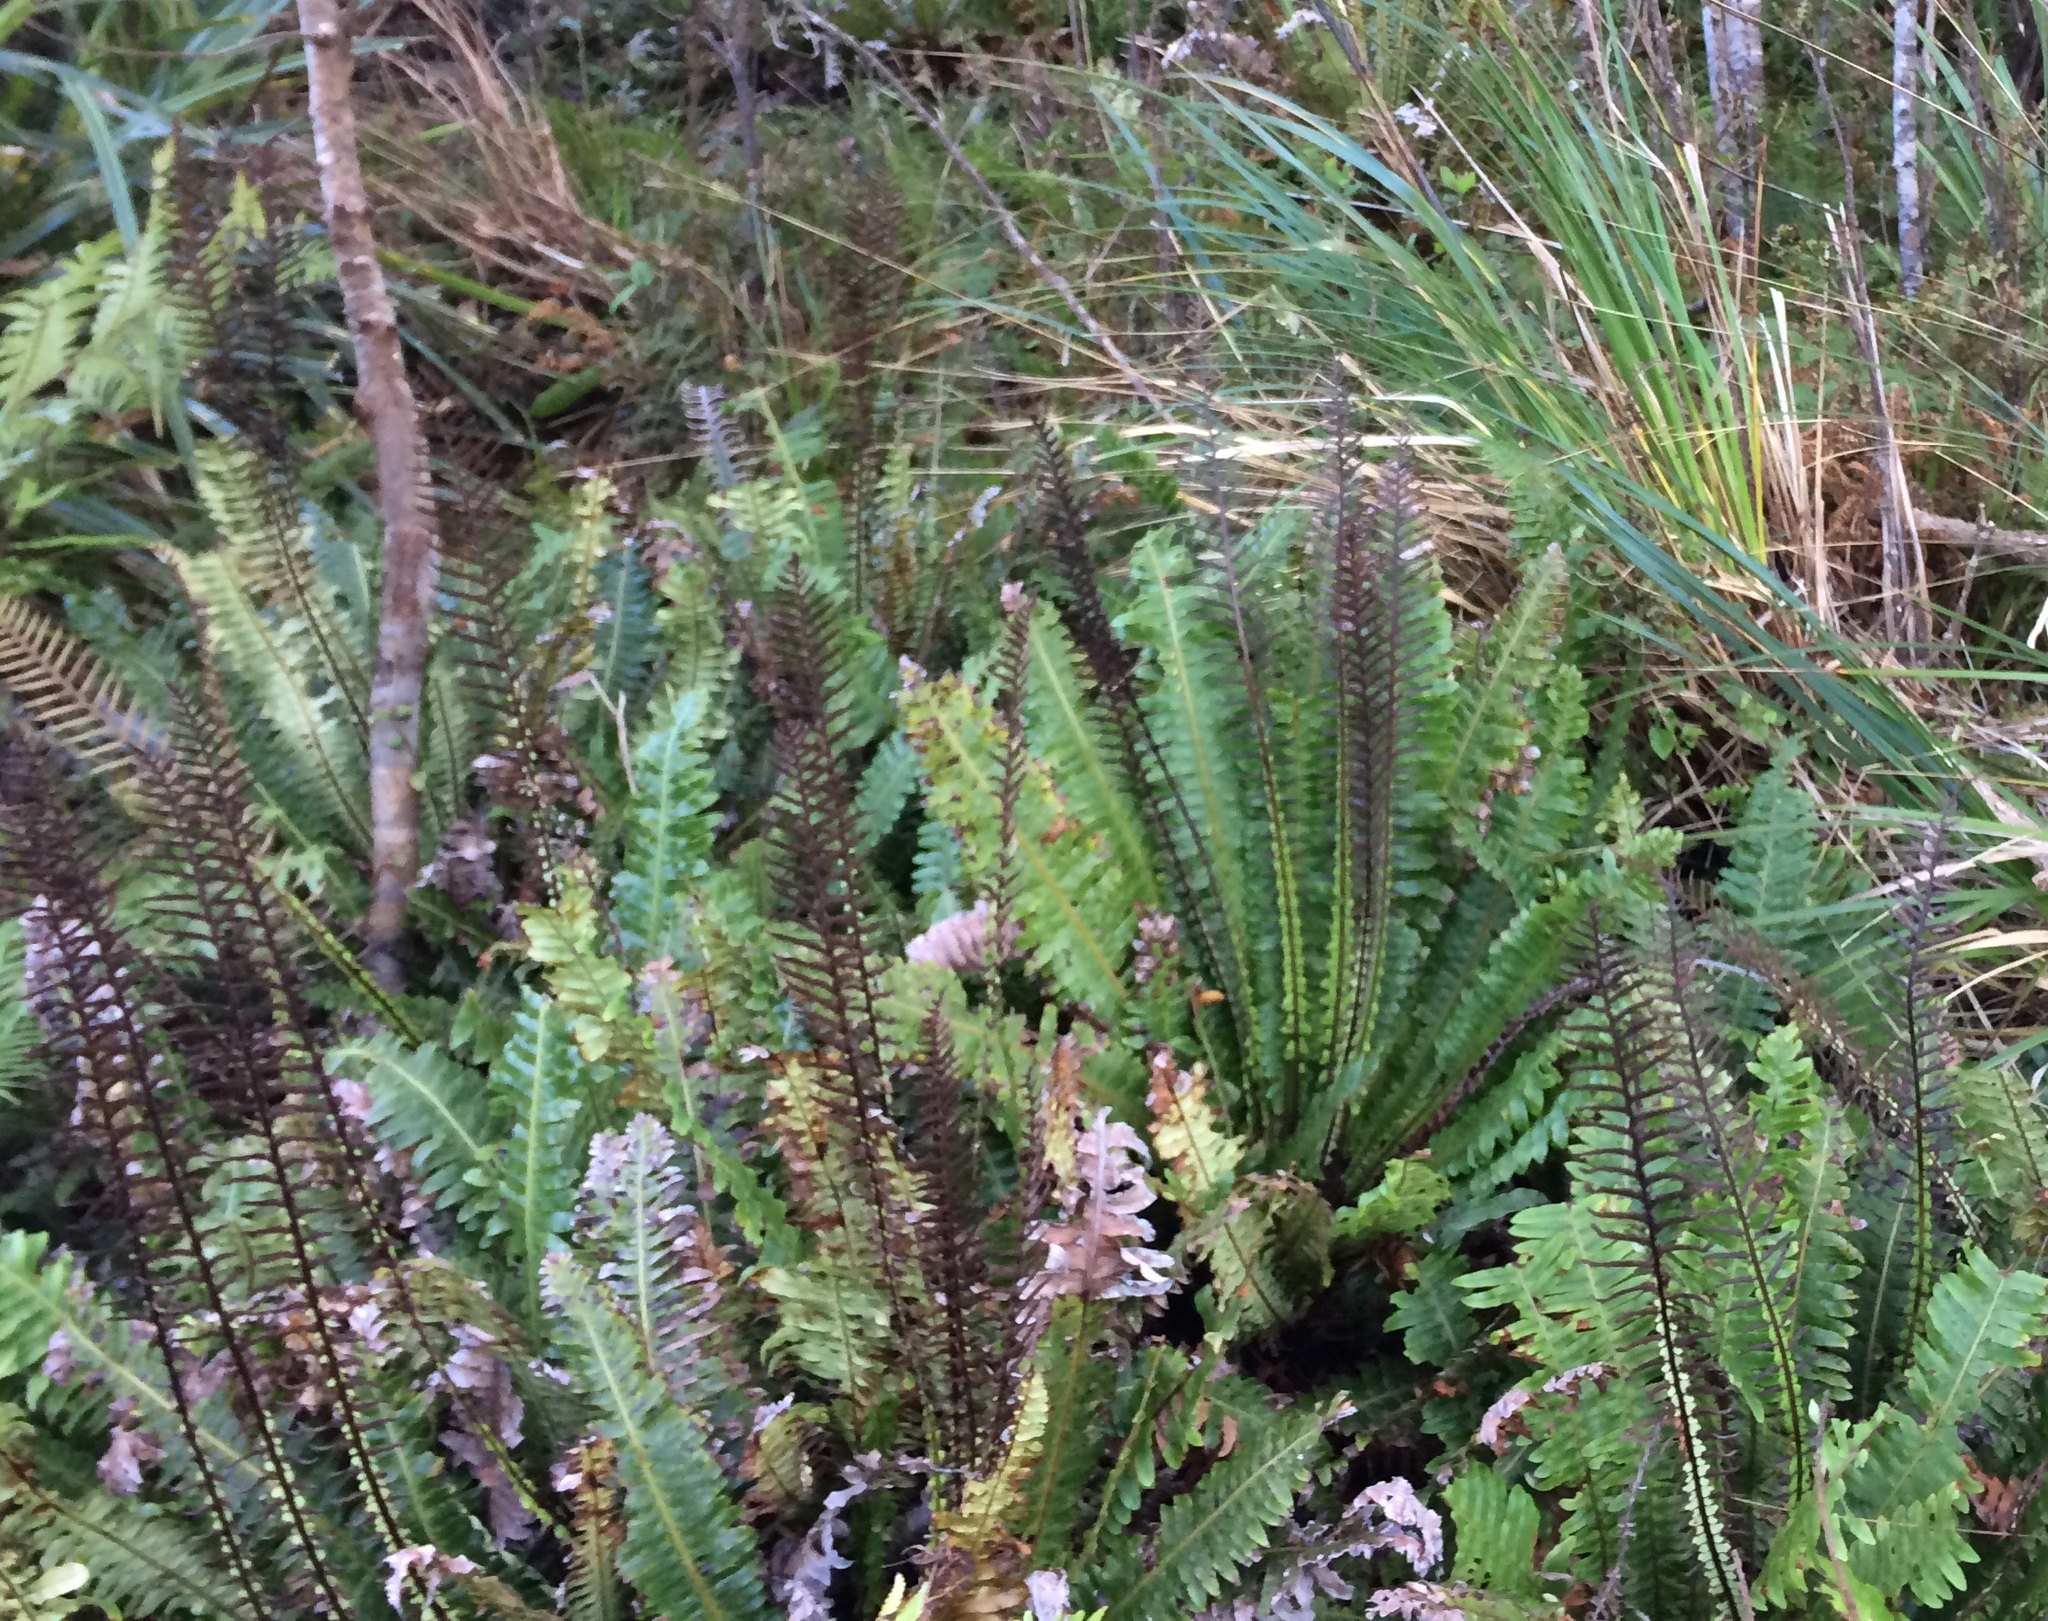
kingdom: Plantae
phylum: Tracheophyta
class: Polypodiopsida
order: Polypodiales
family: Blechnaceae
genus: Lomaria
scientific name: Lomaria discolor
